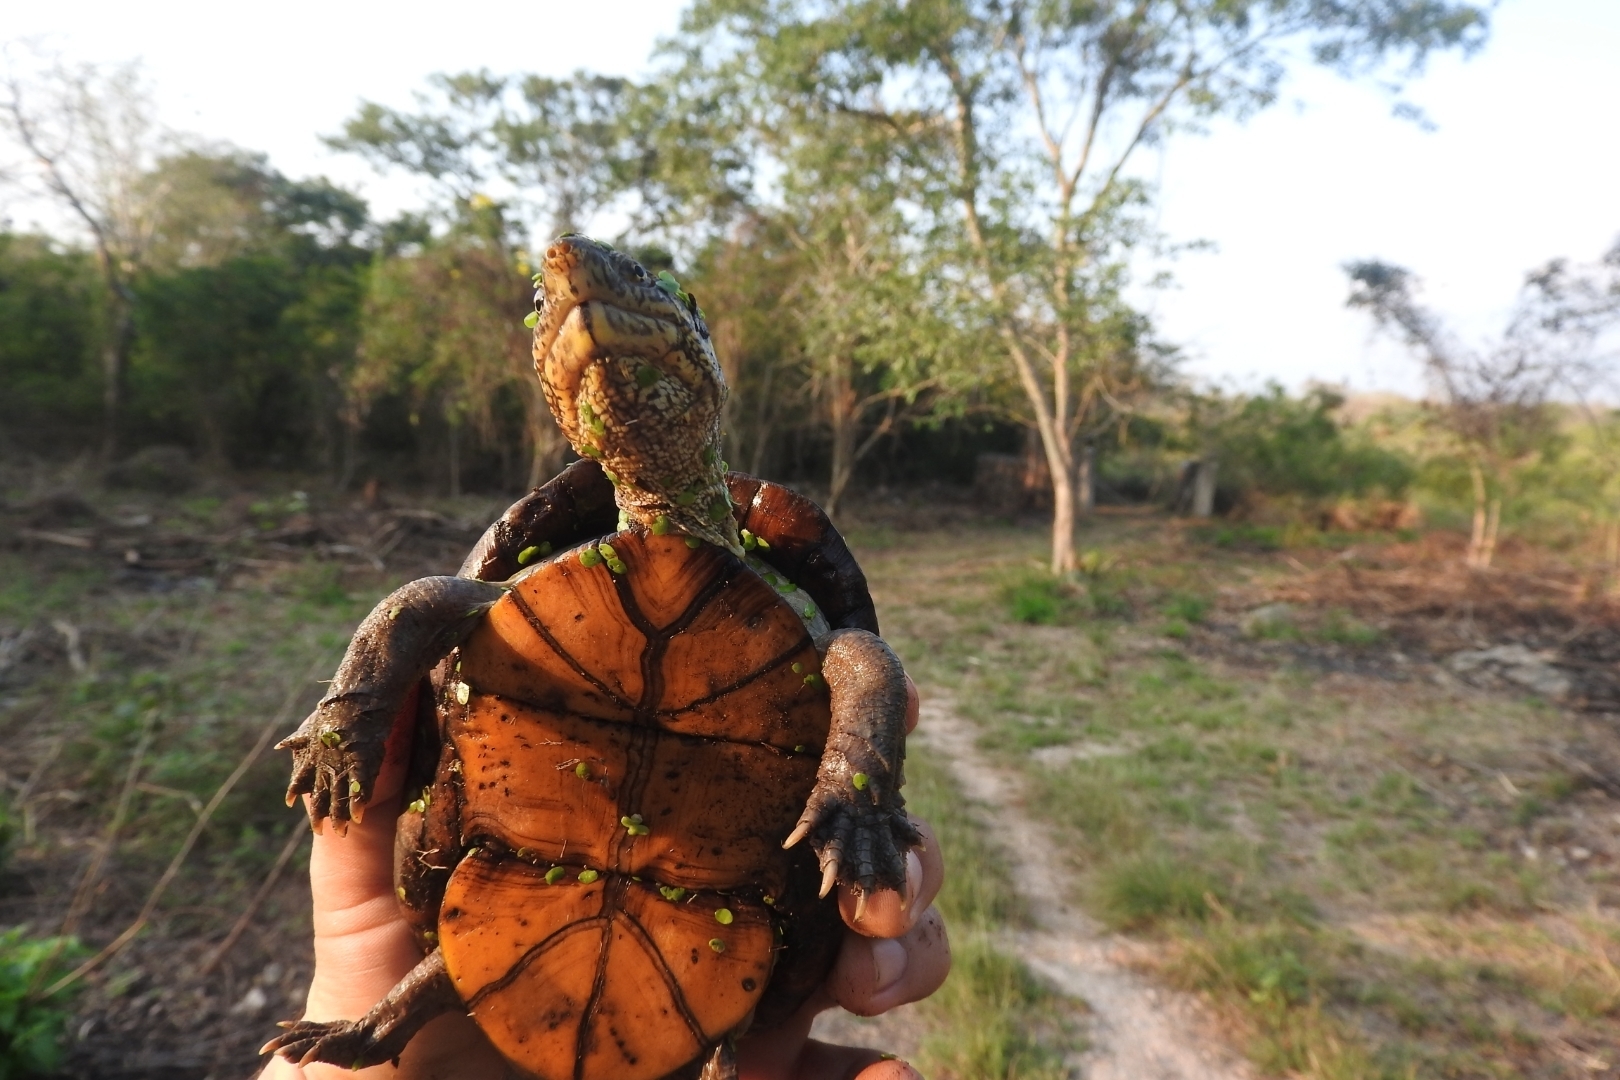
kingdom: Animalia
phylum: Chordata
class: Testudines
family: Kinosternidae
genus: Kinosternon
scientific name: Kinosternon scorpioides
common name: Scorpion mud turtle
